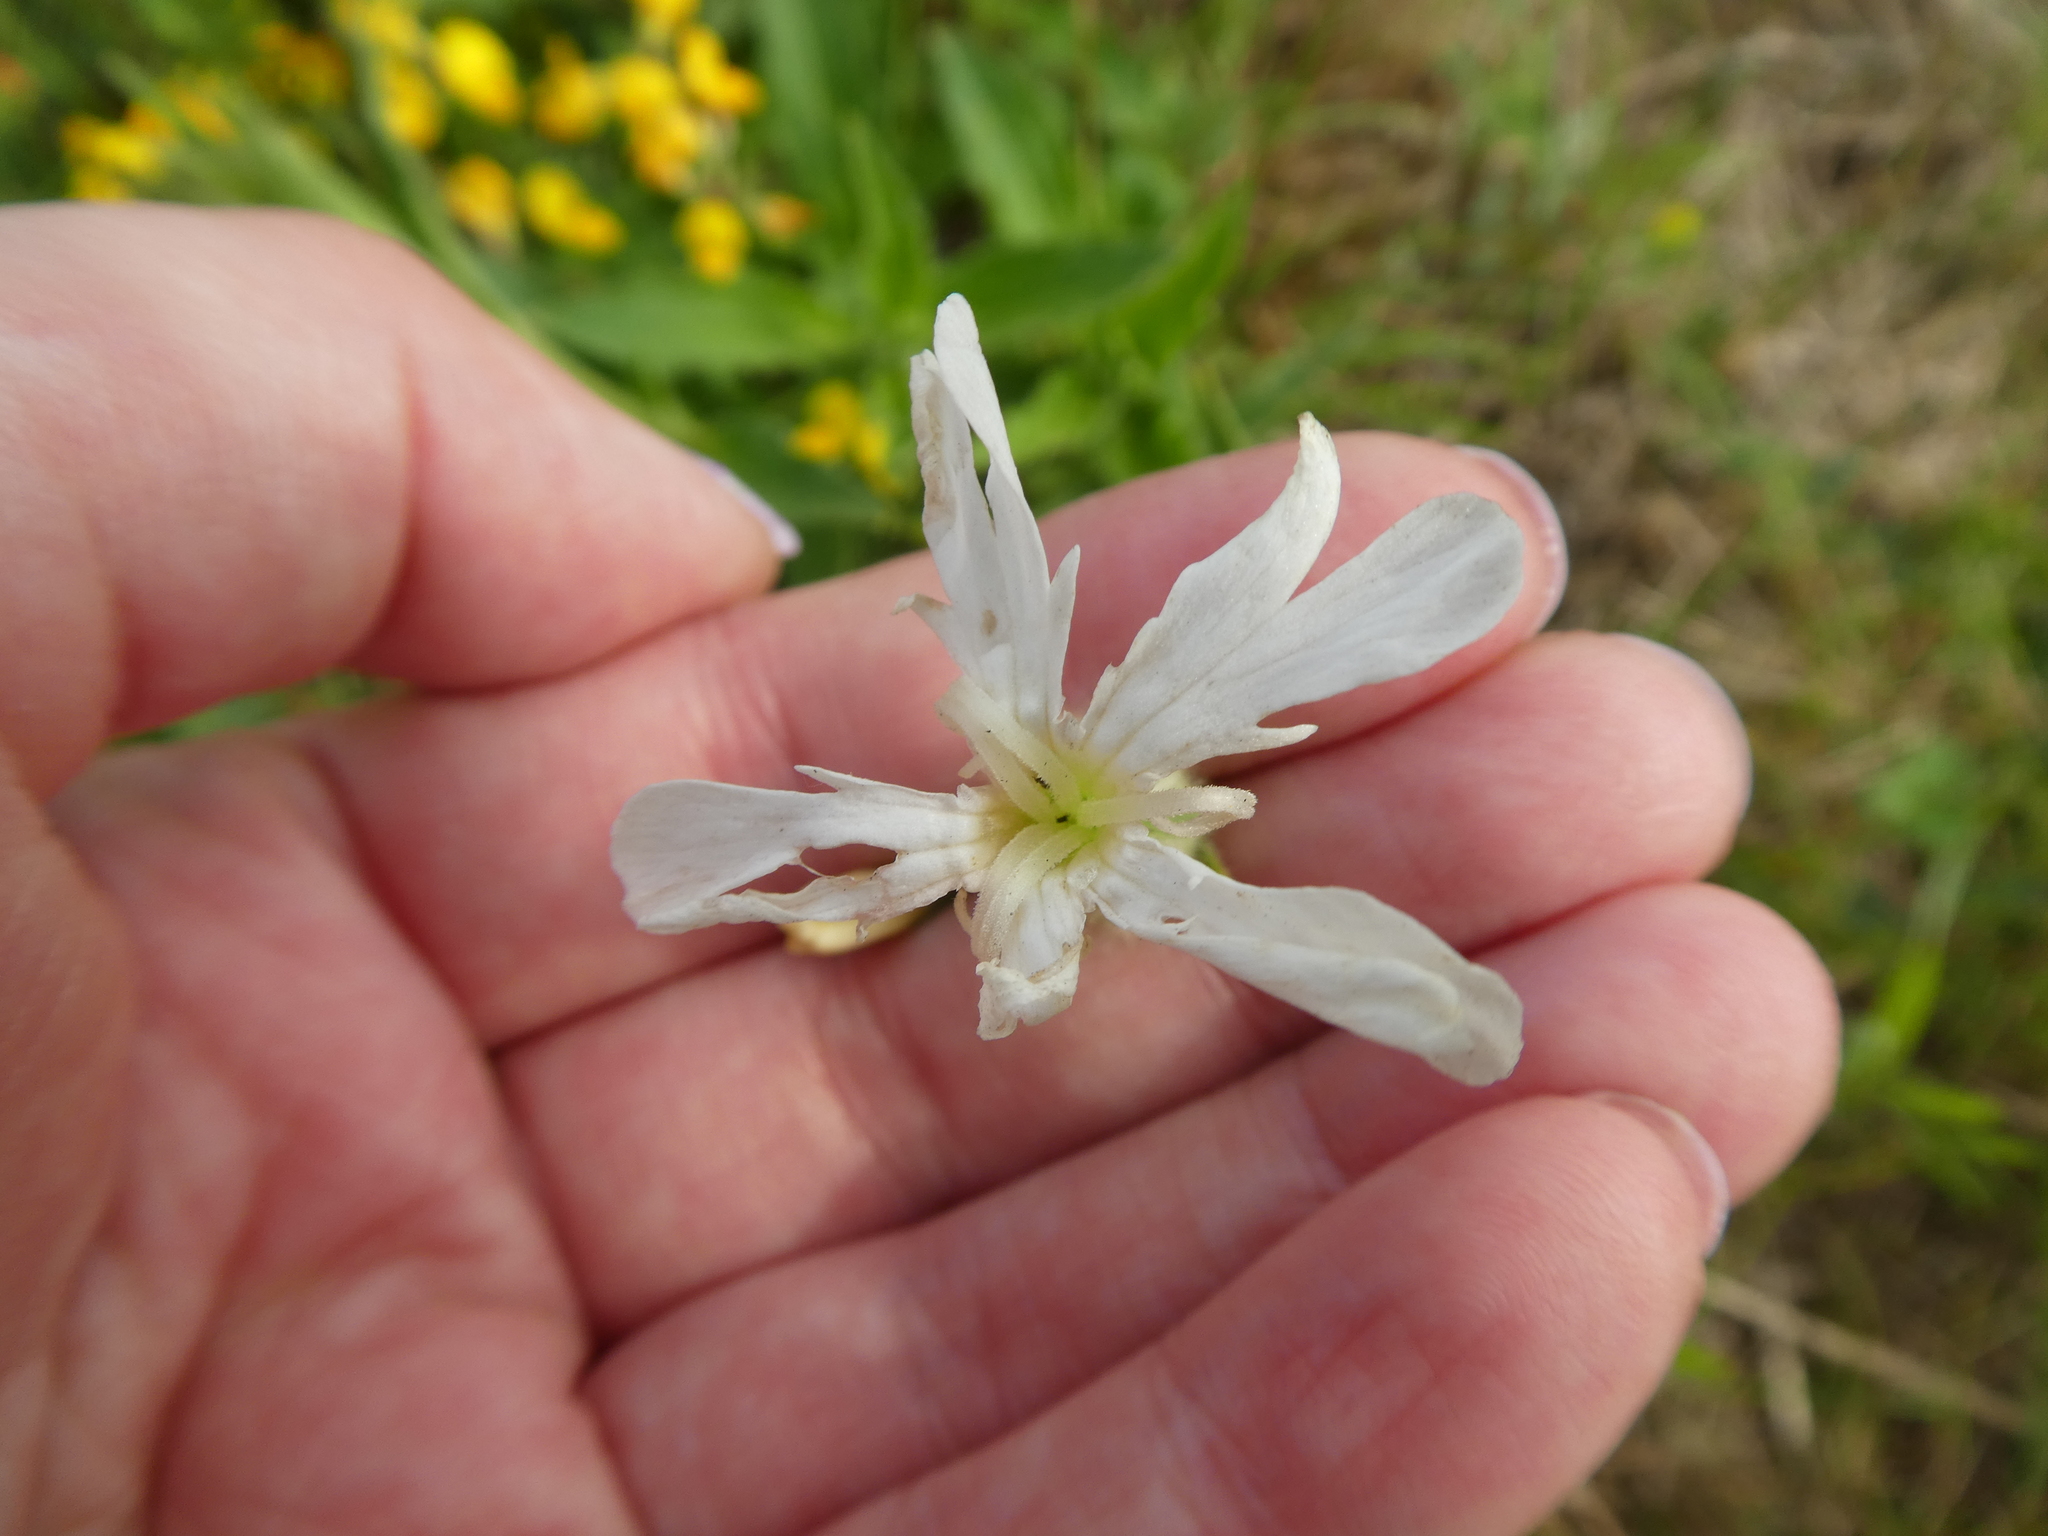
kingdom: Plantae
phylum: Tracheophyta
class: Magnoliopsida
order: Caryophyllales
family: Caryophyllaceae
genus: Silene
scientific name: Silene latifolia
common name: White campion
